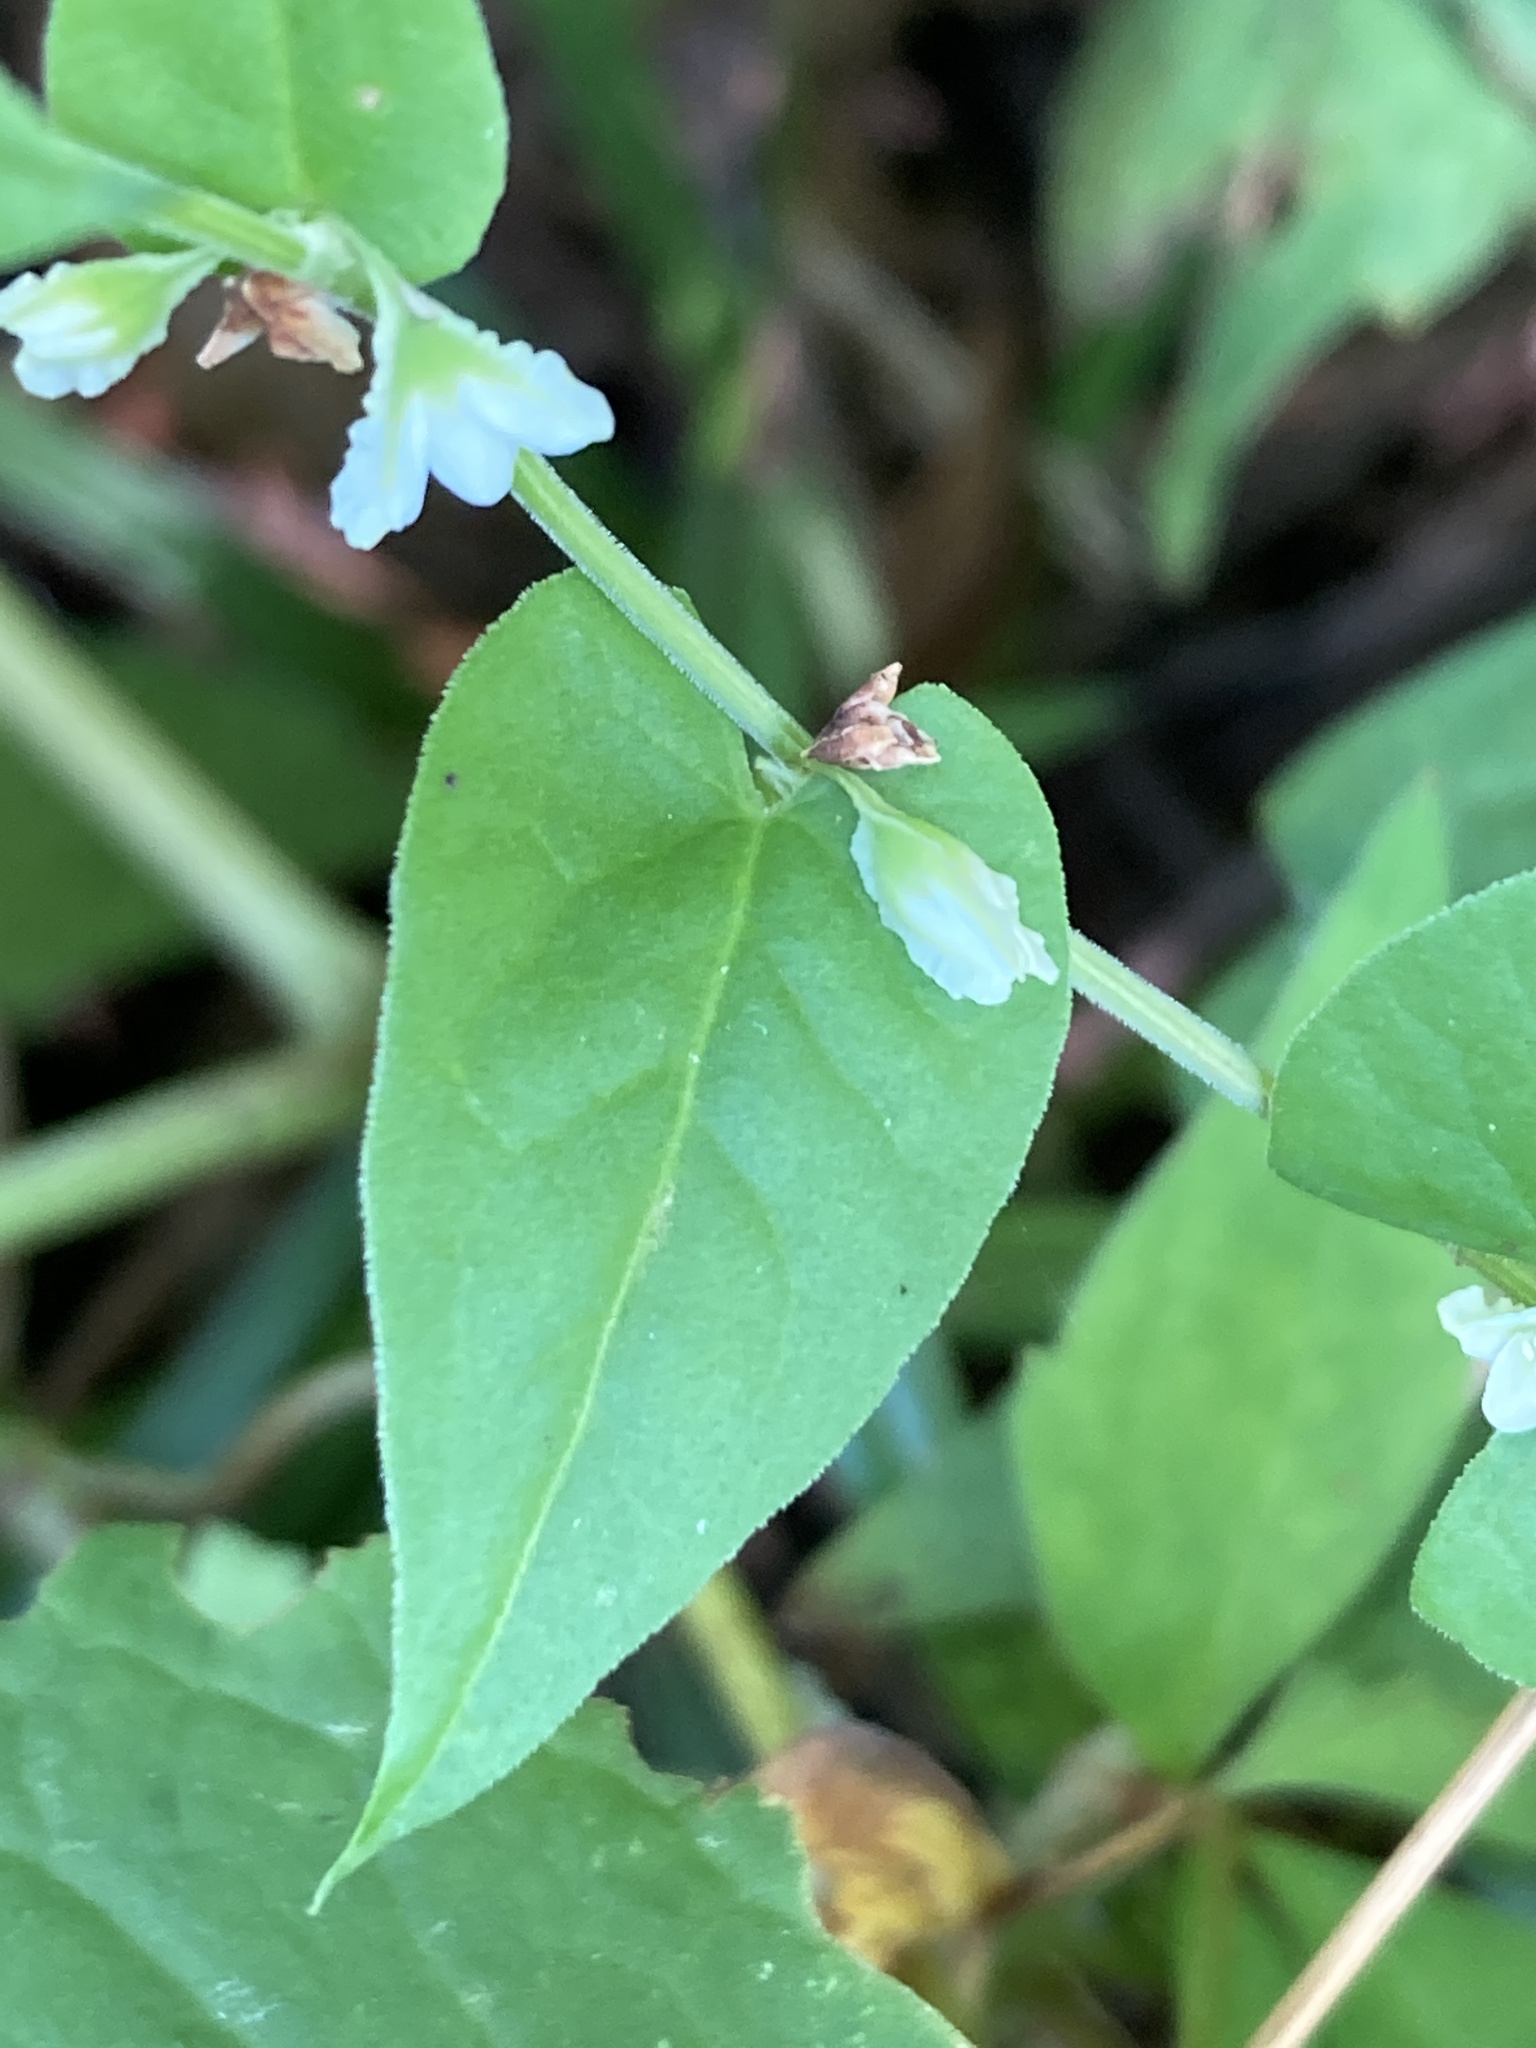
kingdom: Plantae
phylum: Tracheophyta
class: Magnoliopsida
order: Caryophyllales
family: Polygonaceae
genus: Fallopia
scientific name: Fallopia scandens
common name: Climbing false buckwheat
